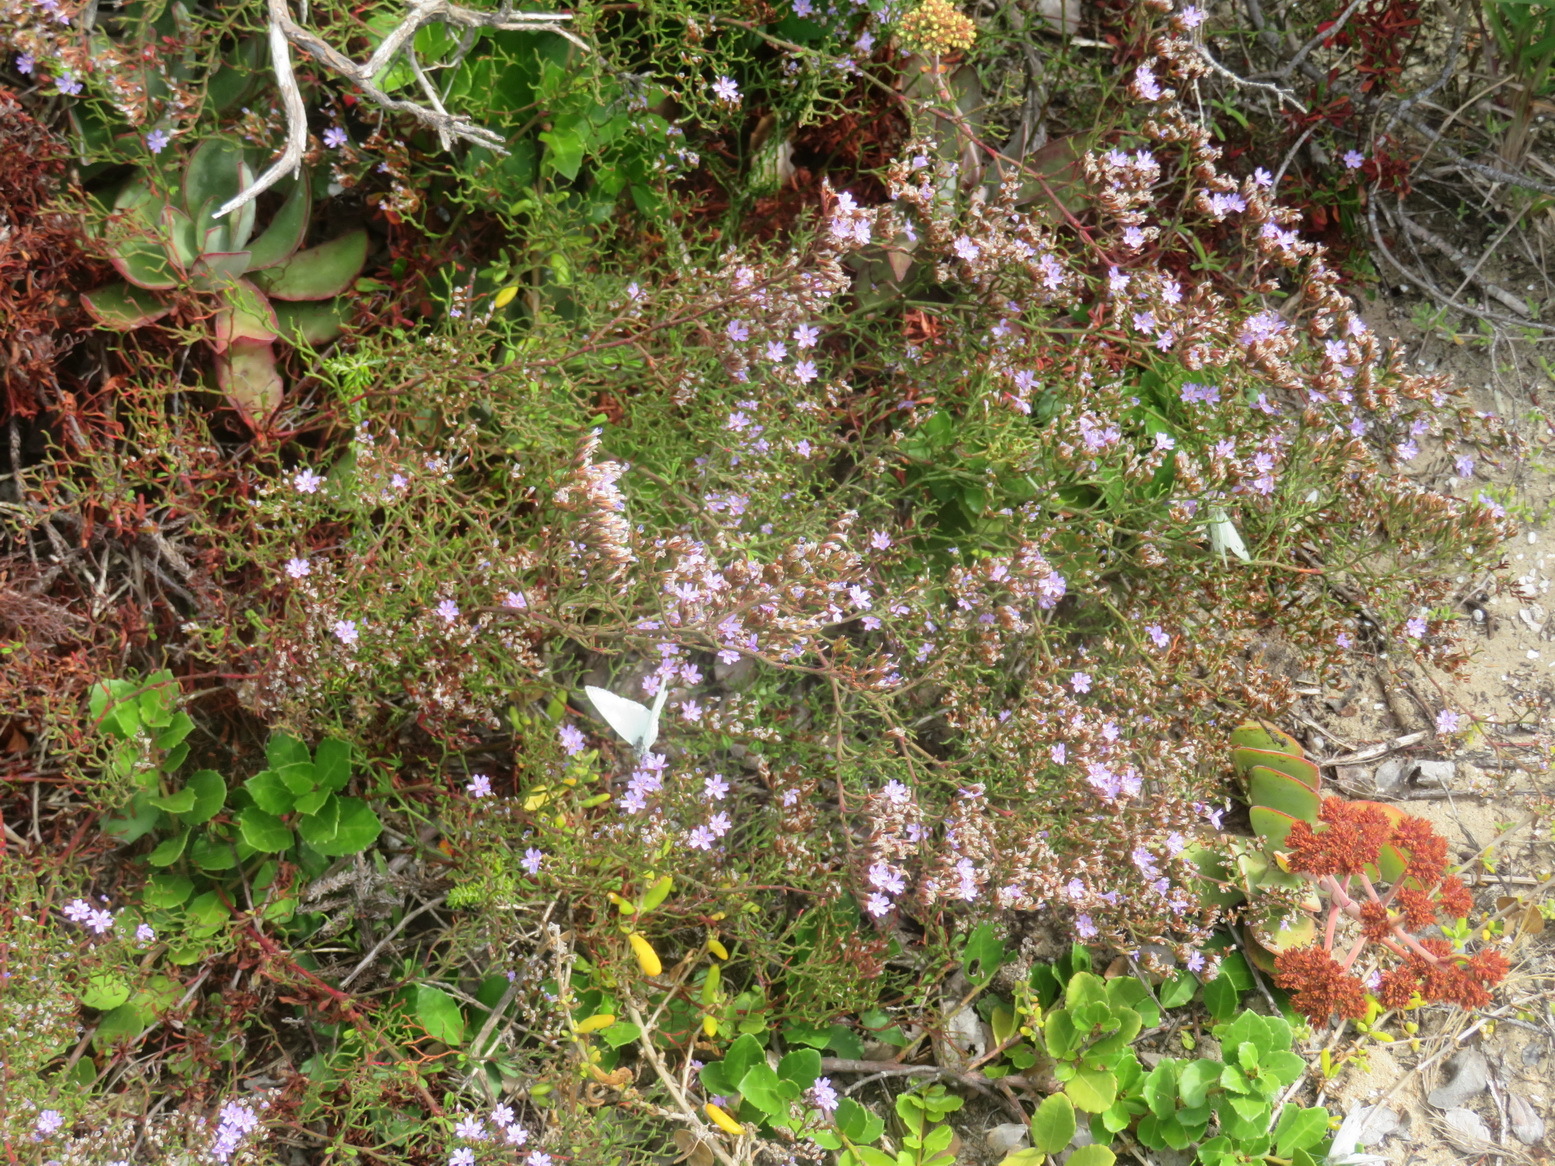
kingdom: Plantae
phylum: Tracheophyta
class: Magnoliopsida
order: Caryophyllales
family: Plumbaginaceae
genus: Limonium
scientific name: Limonium scabrum
